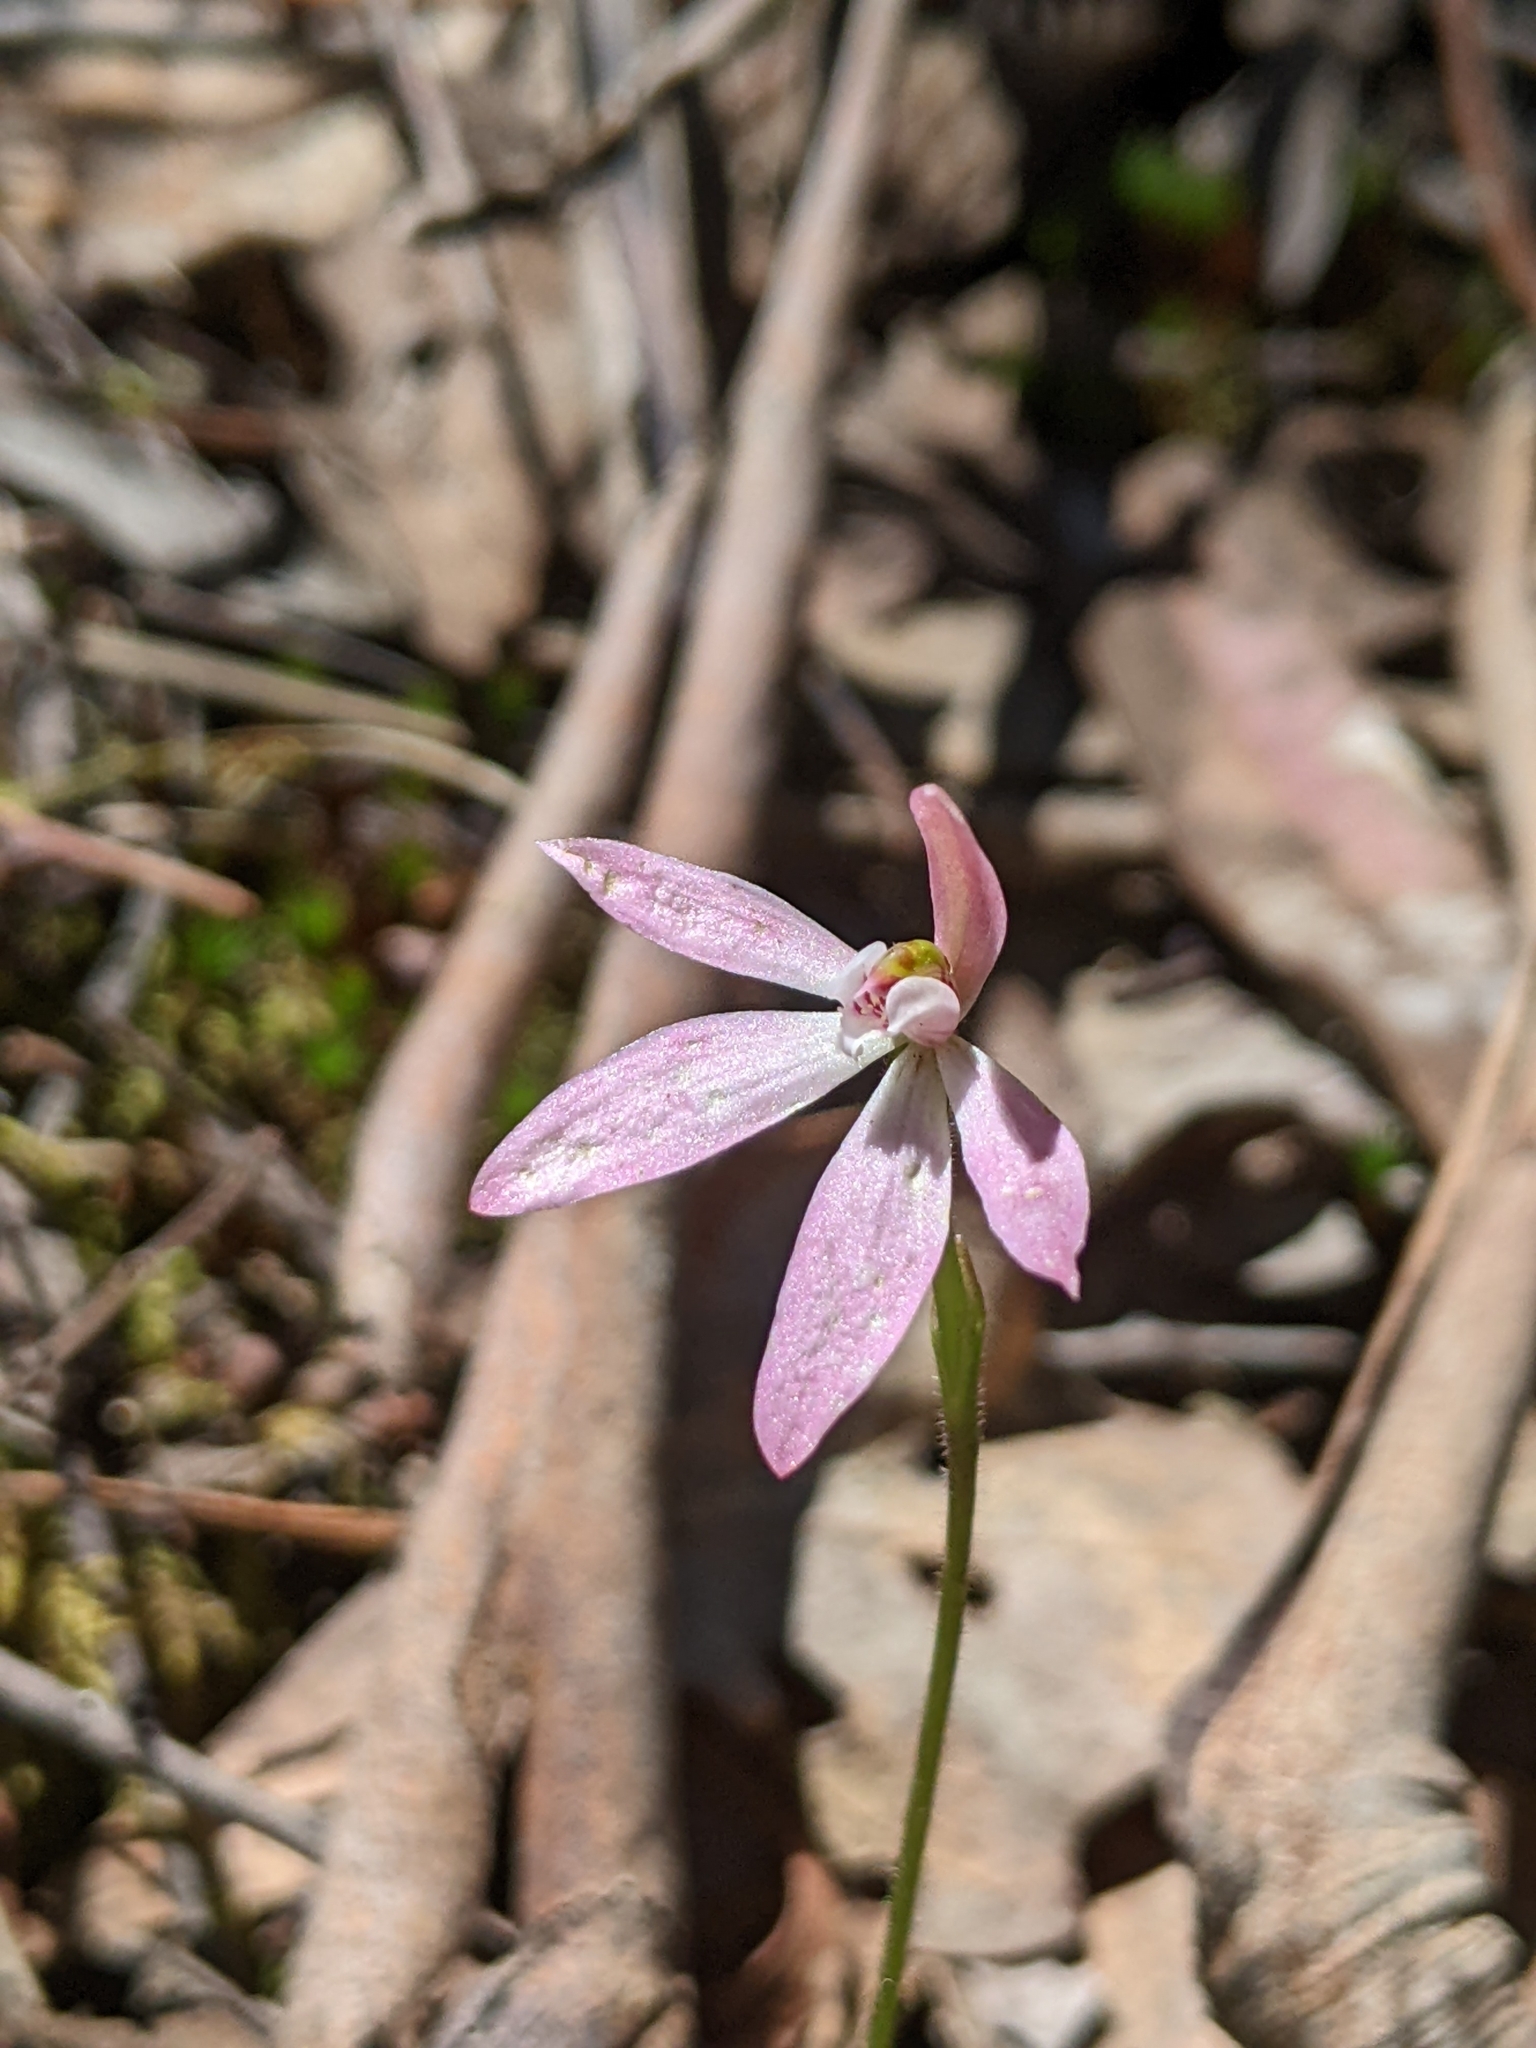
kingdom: Plantae
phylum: Tracheophyta
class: Liliopsida
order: Asparagales
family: Orchidaceae
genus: Caladenia
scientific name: Caladenia carnea
